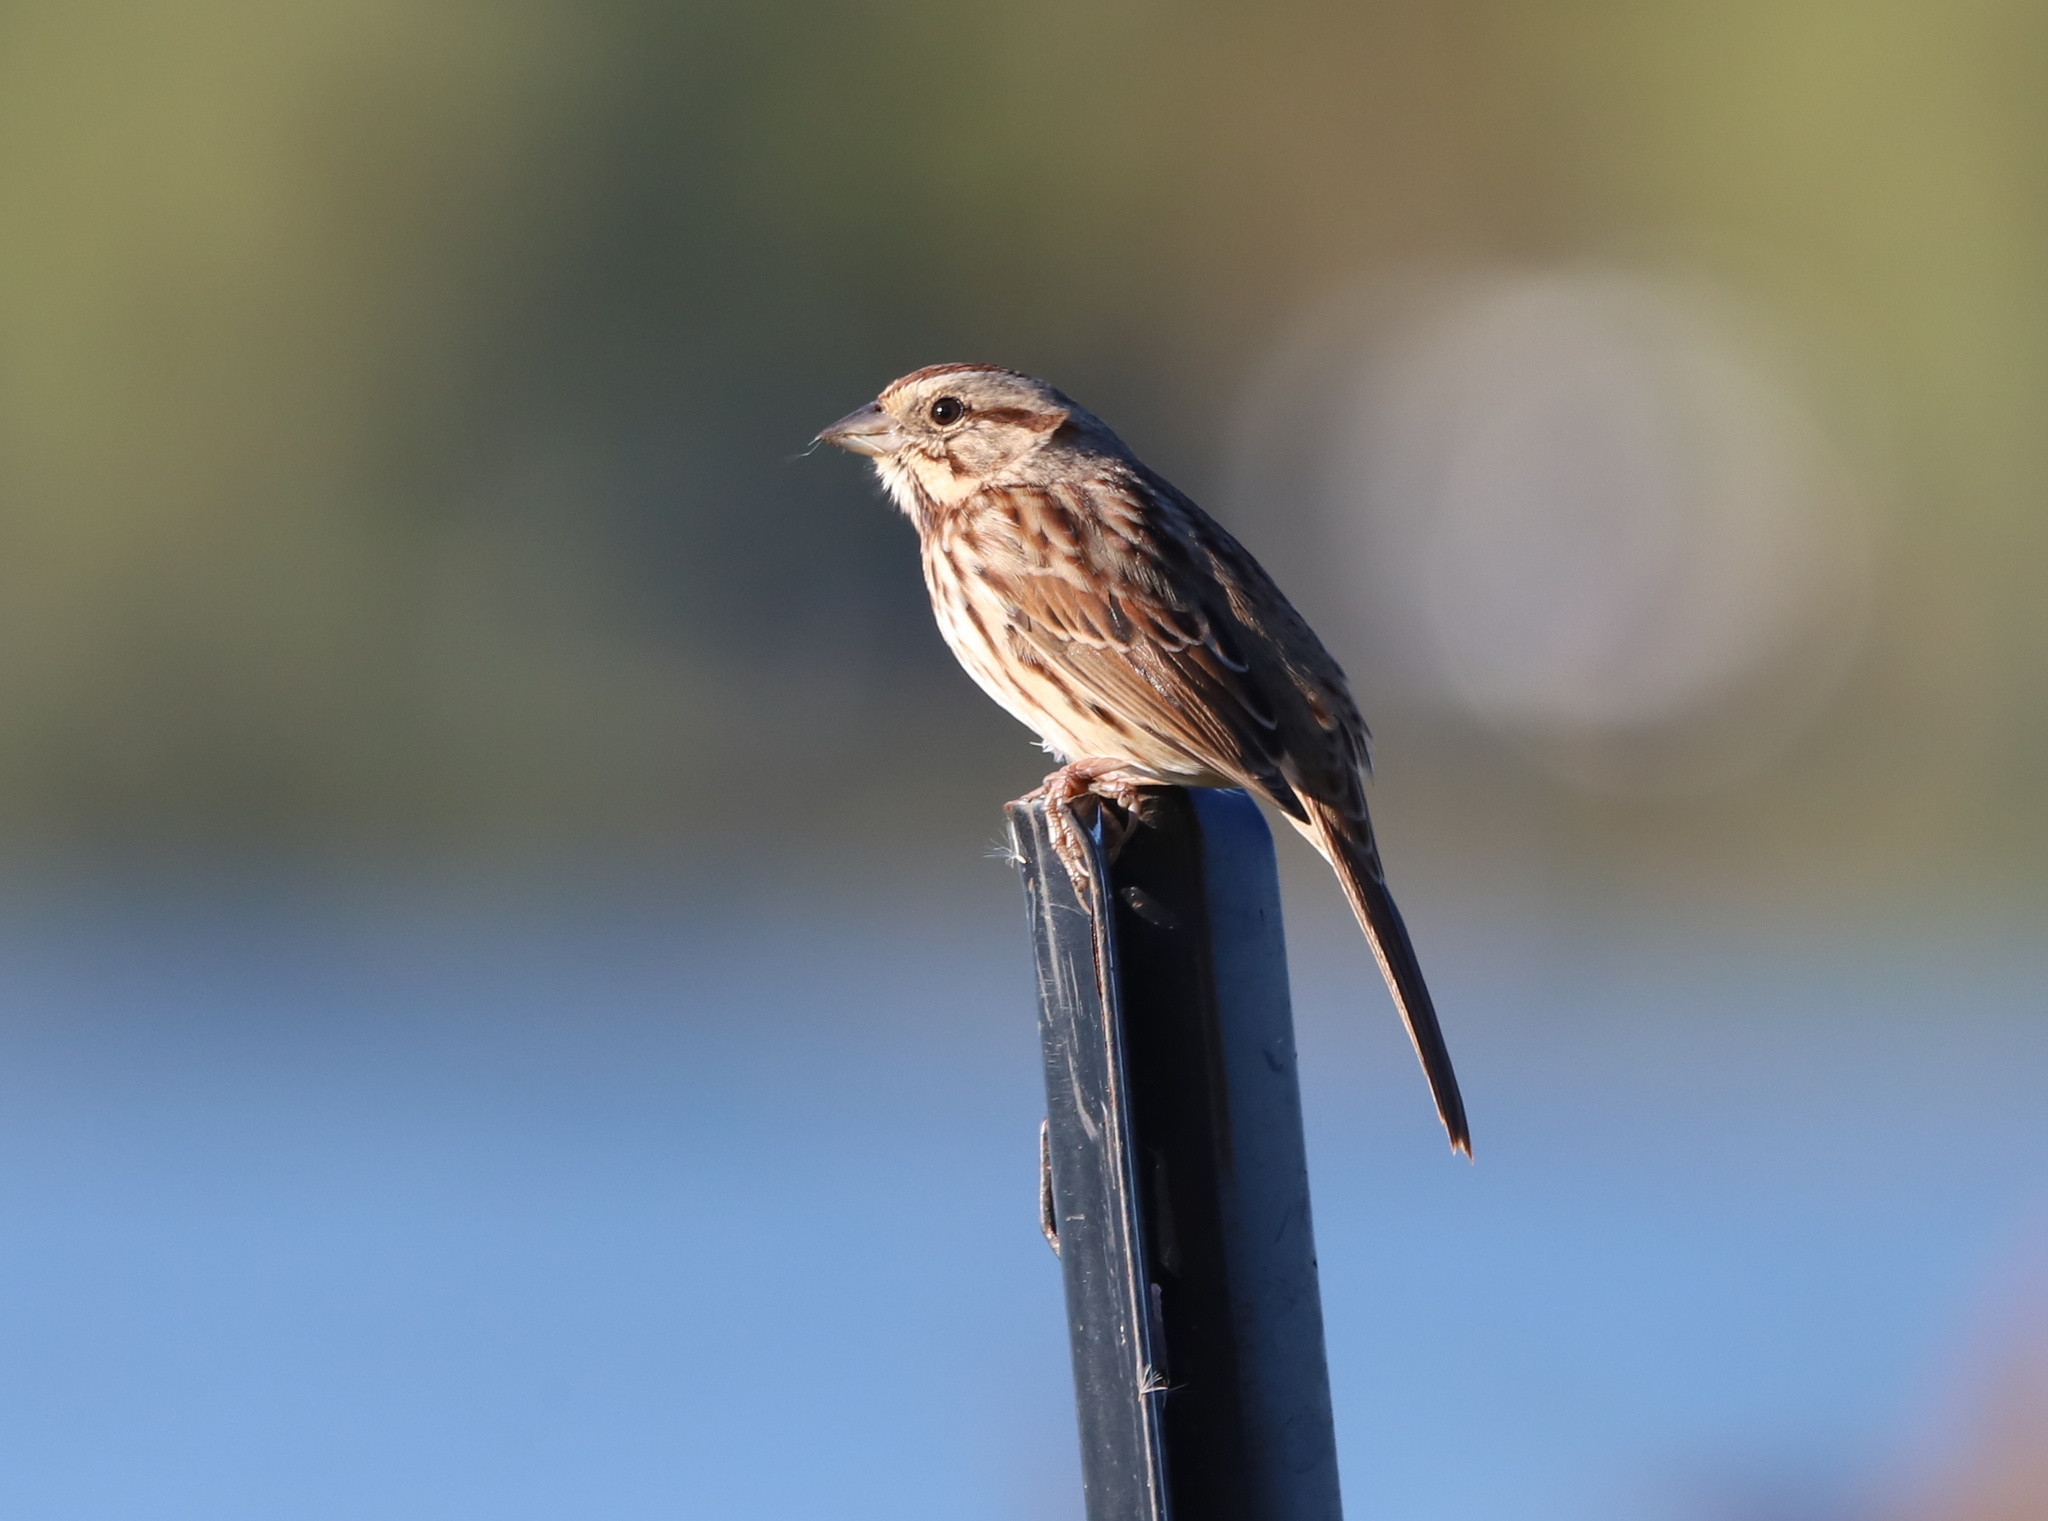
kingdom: Animalia
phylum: Chordata
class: Aves
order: Passeriformes
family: Passerellidae
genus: Melospiza
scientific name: Melospiza melodia
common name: Song sparrow
